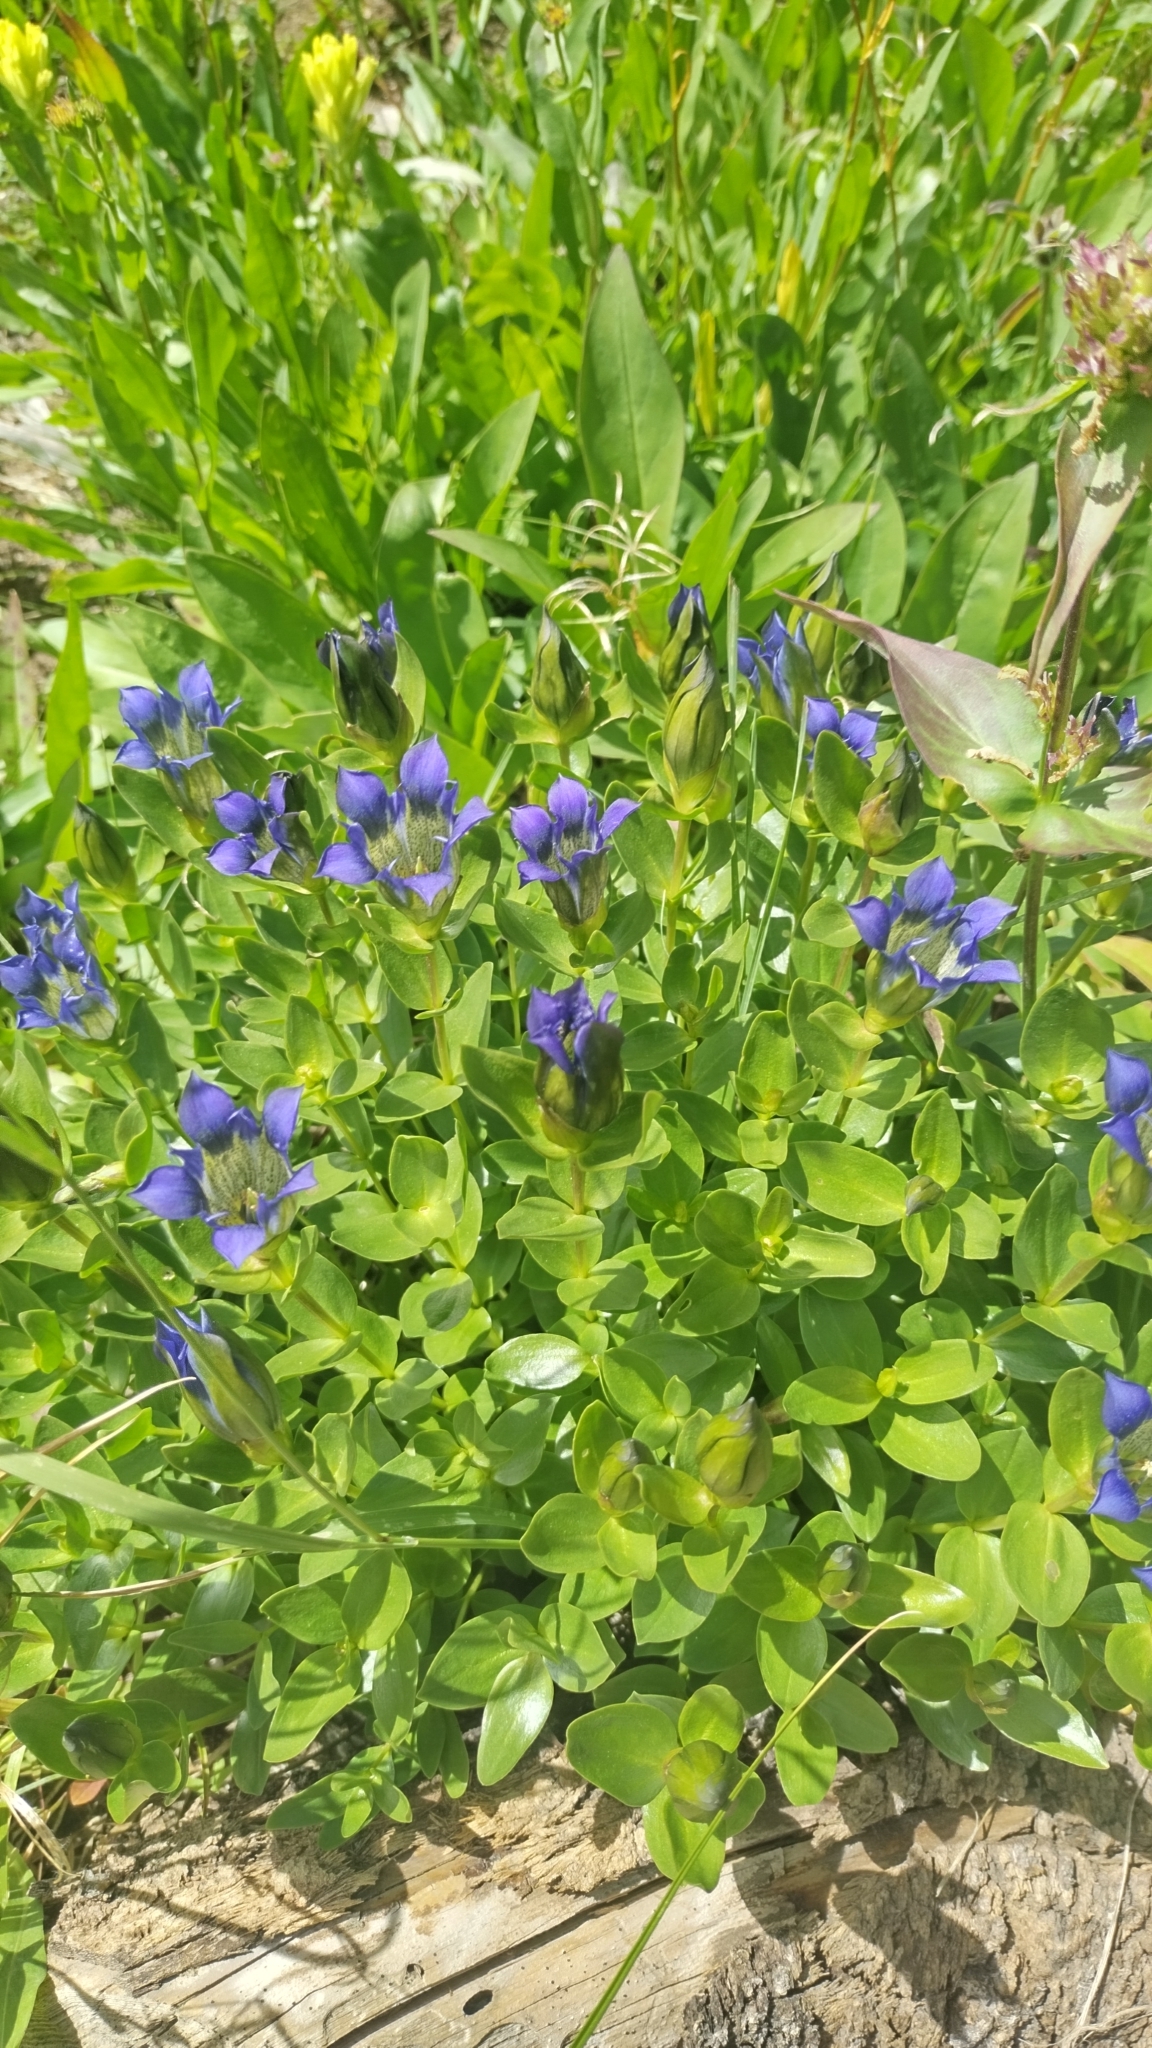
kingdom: Plantae
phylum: Tracheophyta
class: Magnoliopsida
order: Gentianales
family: Gentianaceae
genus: Gentiana
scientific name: Gentiana calycosa
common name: Rainier pleated gentian
